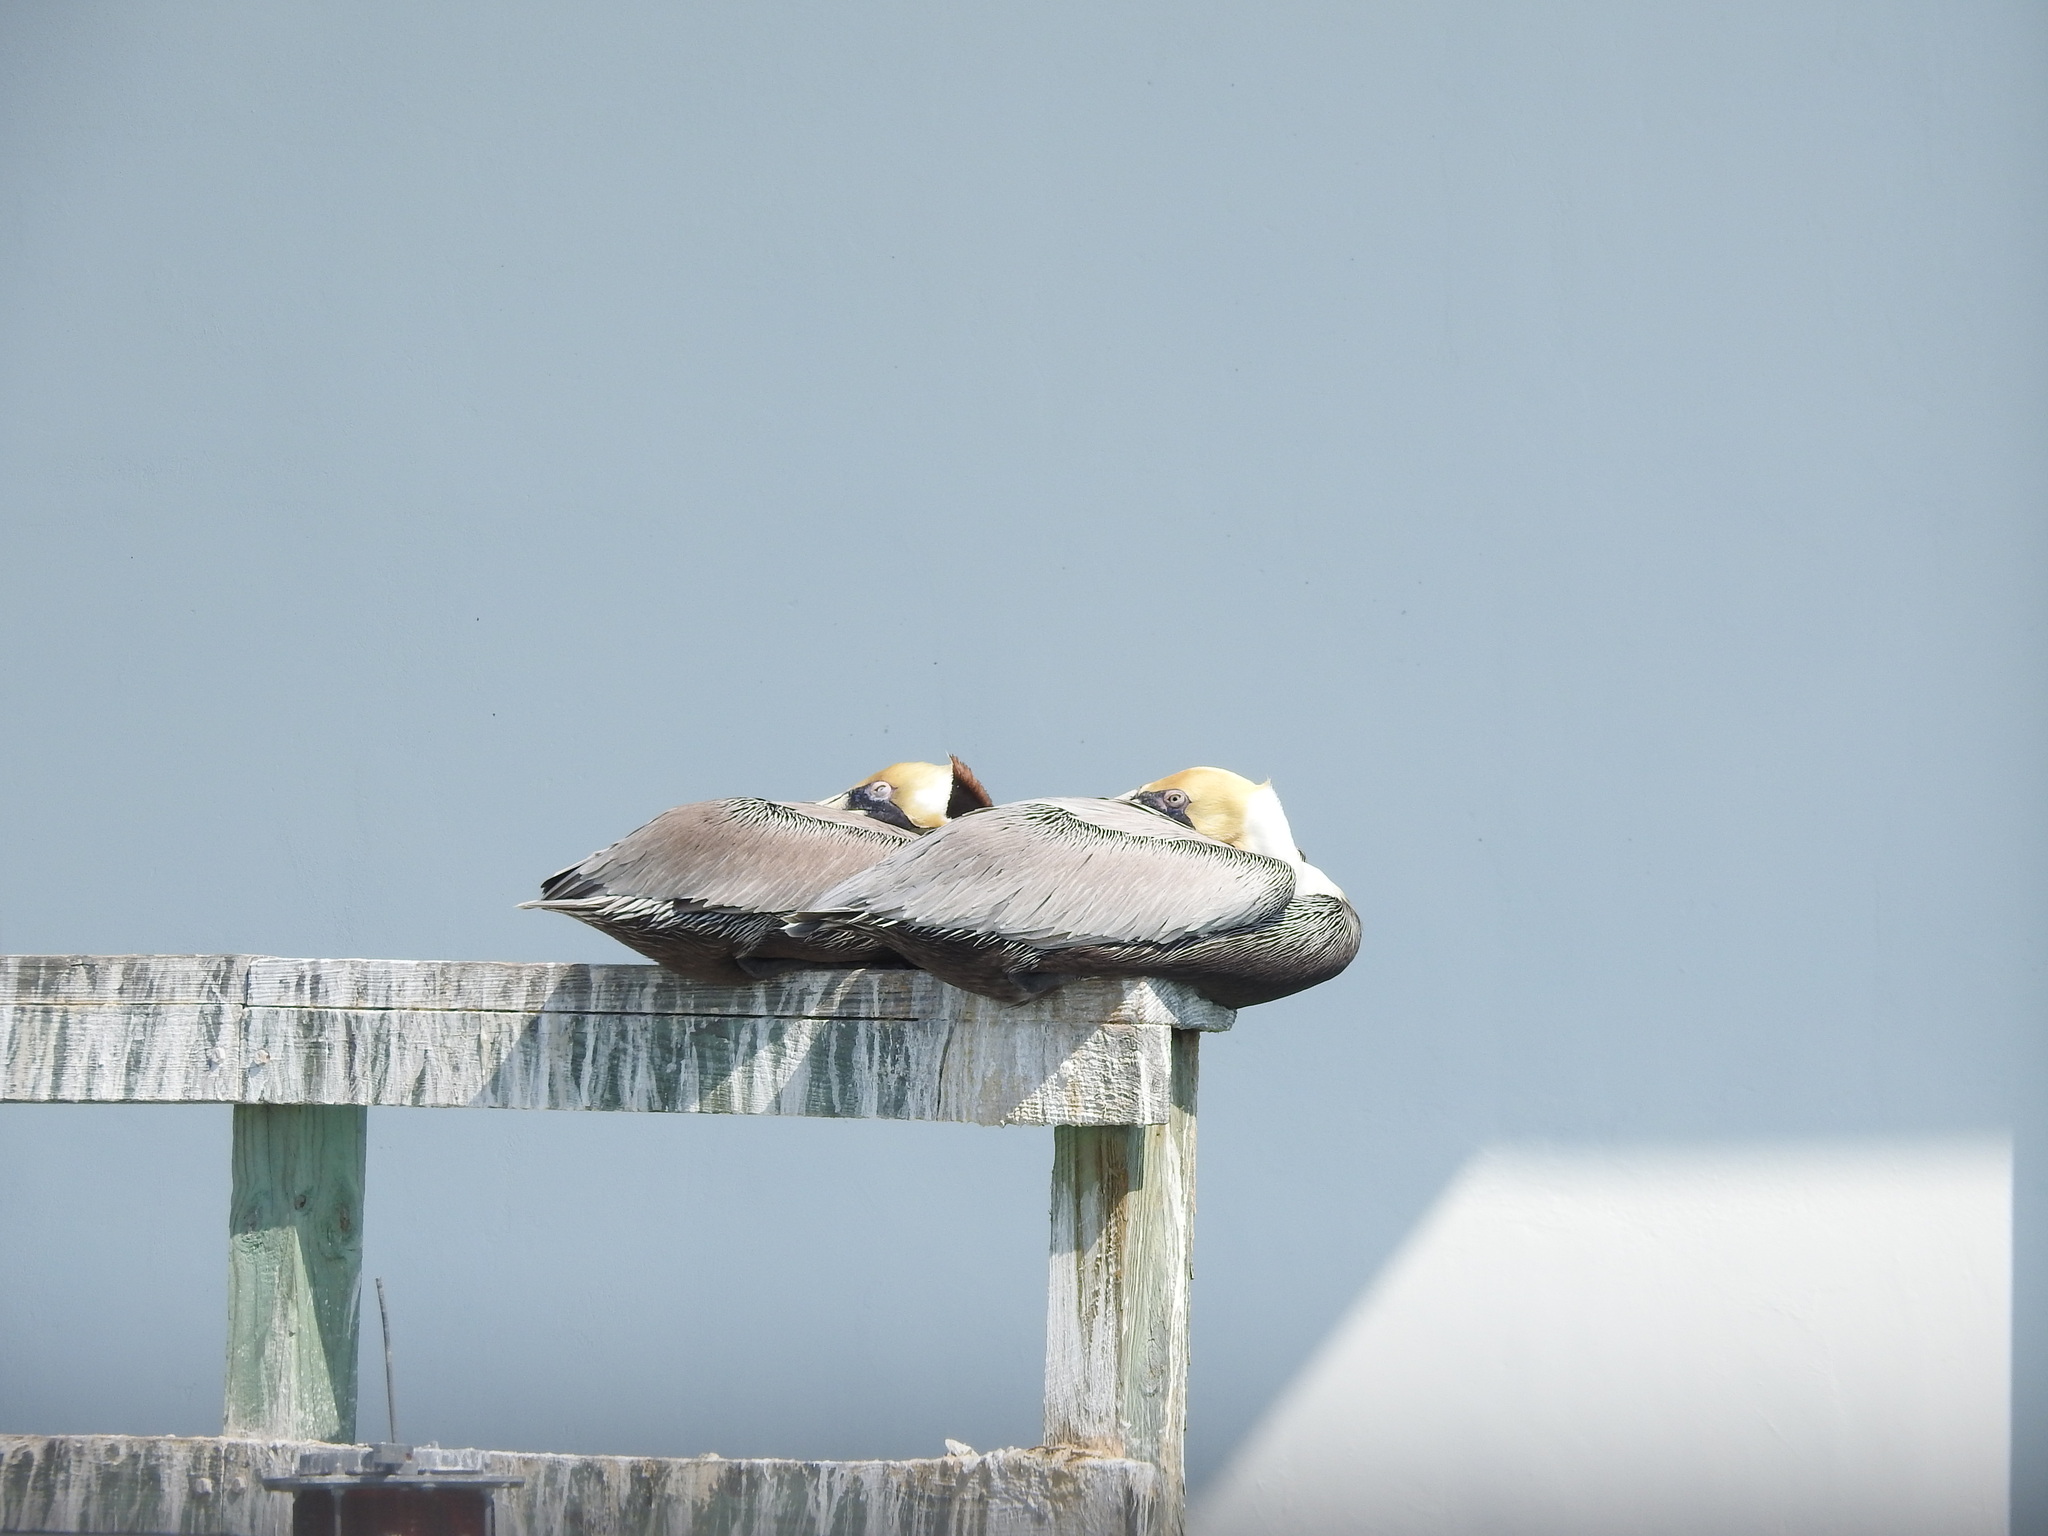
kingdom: Animalia
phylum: Chordata
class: Aves
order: Pelecaniformes
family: Pelecanidae
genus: Pelecanus
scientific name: Pelecanus occidentalis
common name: Brown pelican
